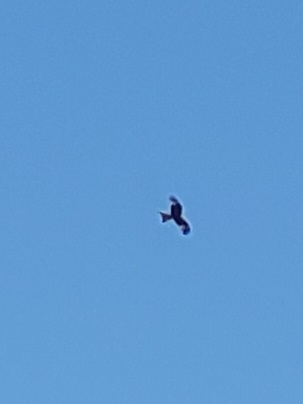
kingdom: Animalia
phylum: Chordata
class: Aves
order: Accipitriformes
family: Accipitridae
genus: Milvus
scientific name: Milvus milvus
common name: Red kite
